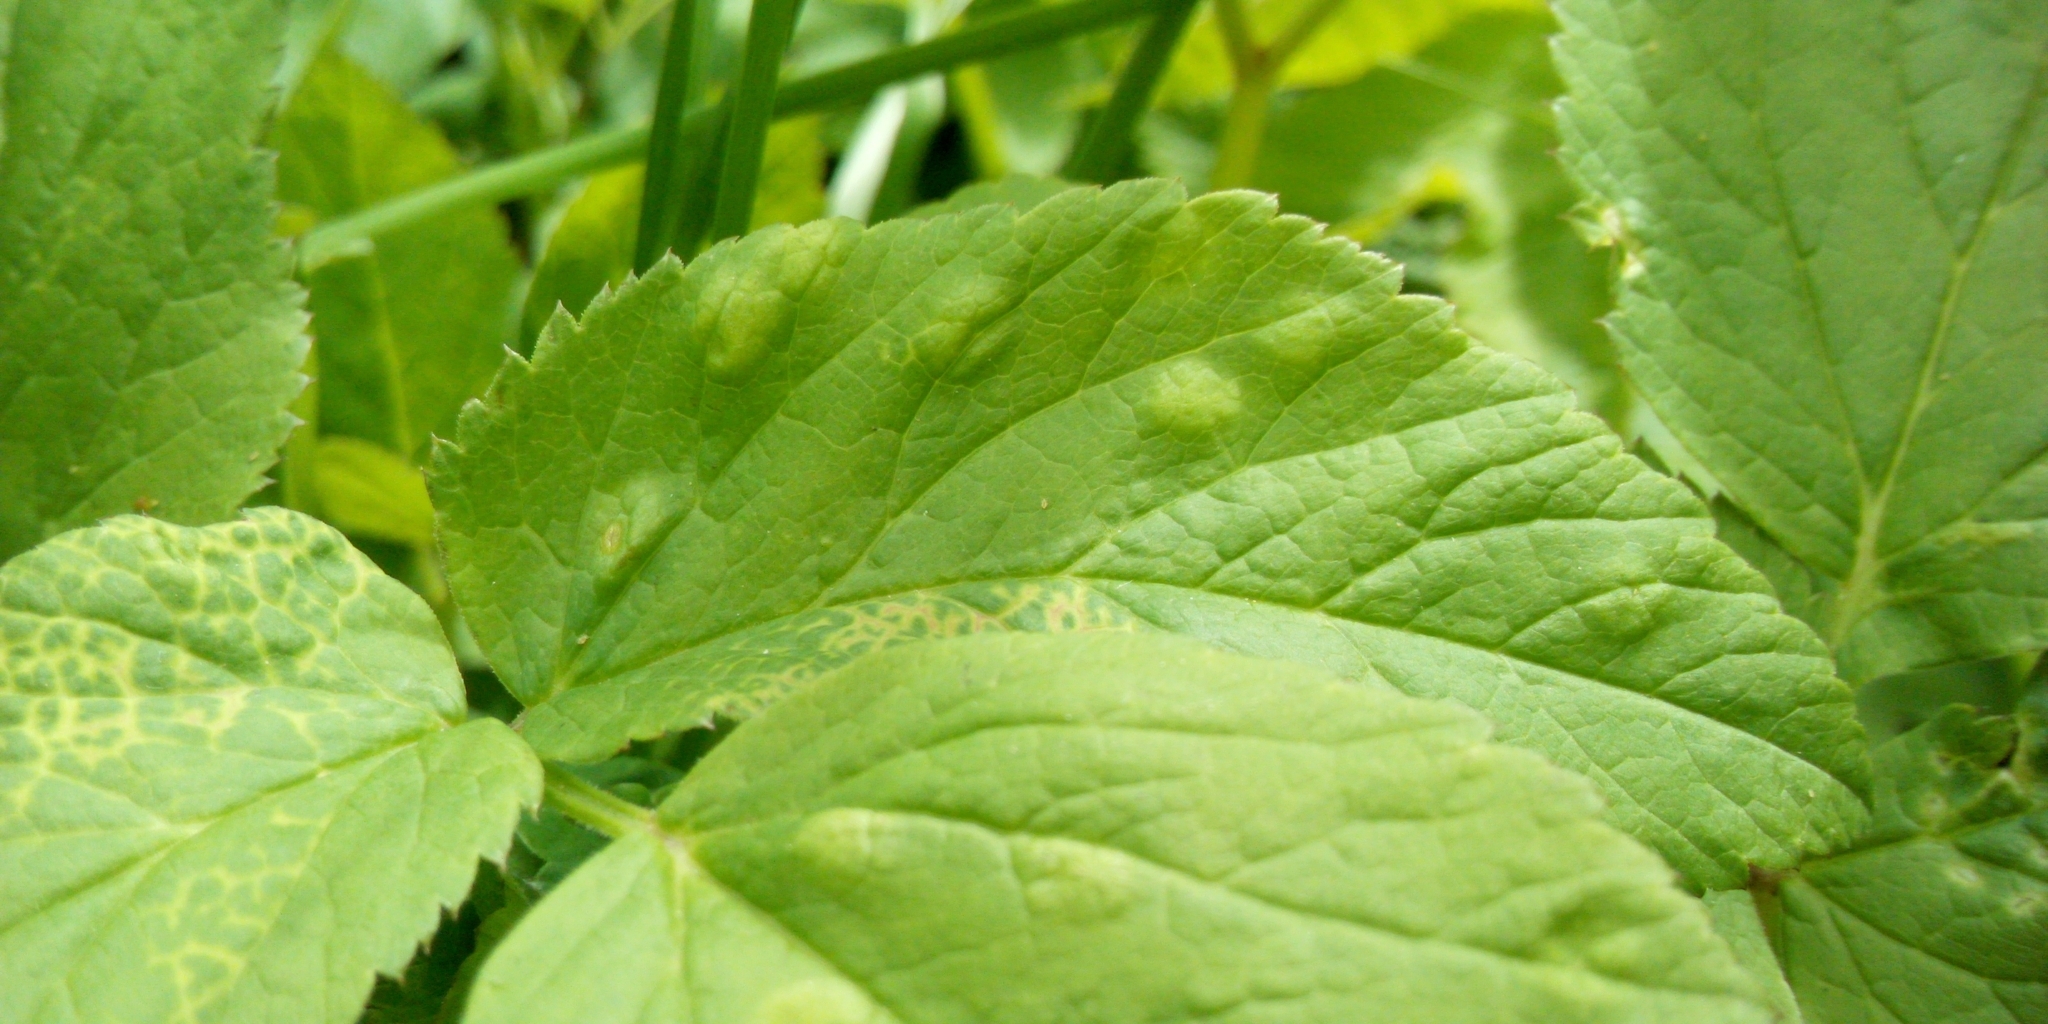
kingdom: Animalia
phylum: Arthropoda
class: Insecta
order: Hemiptera
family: Triozidae
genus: Trioza
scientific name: Trioza flavipennis
